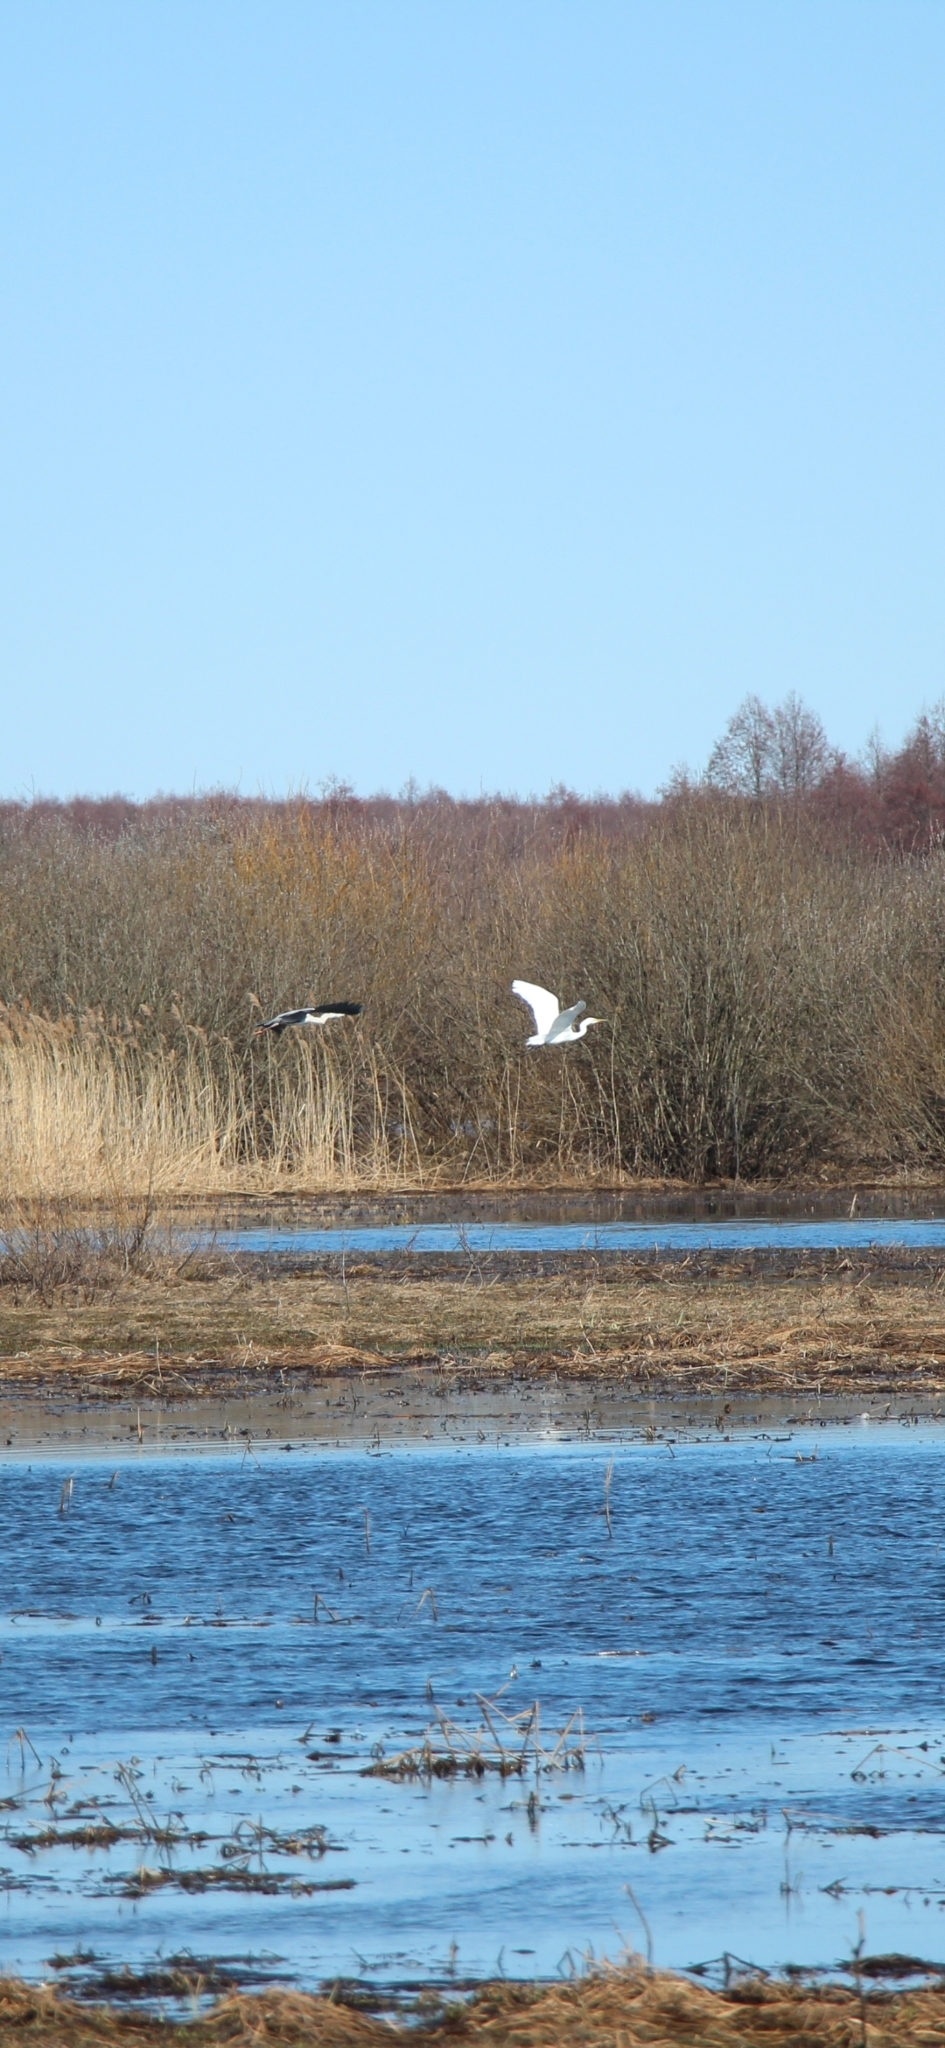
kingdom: Animalia
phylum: Chordata
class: Aves
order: Pelecaniformes
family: Ardeidae
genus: Ardea
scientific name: Ardea alba
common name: Great egret
